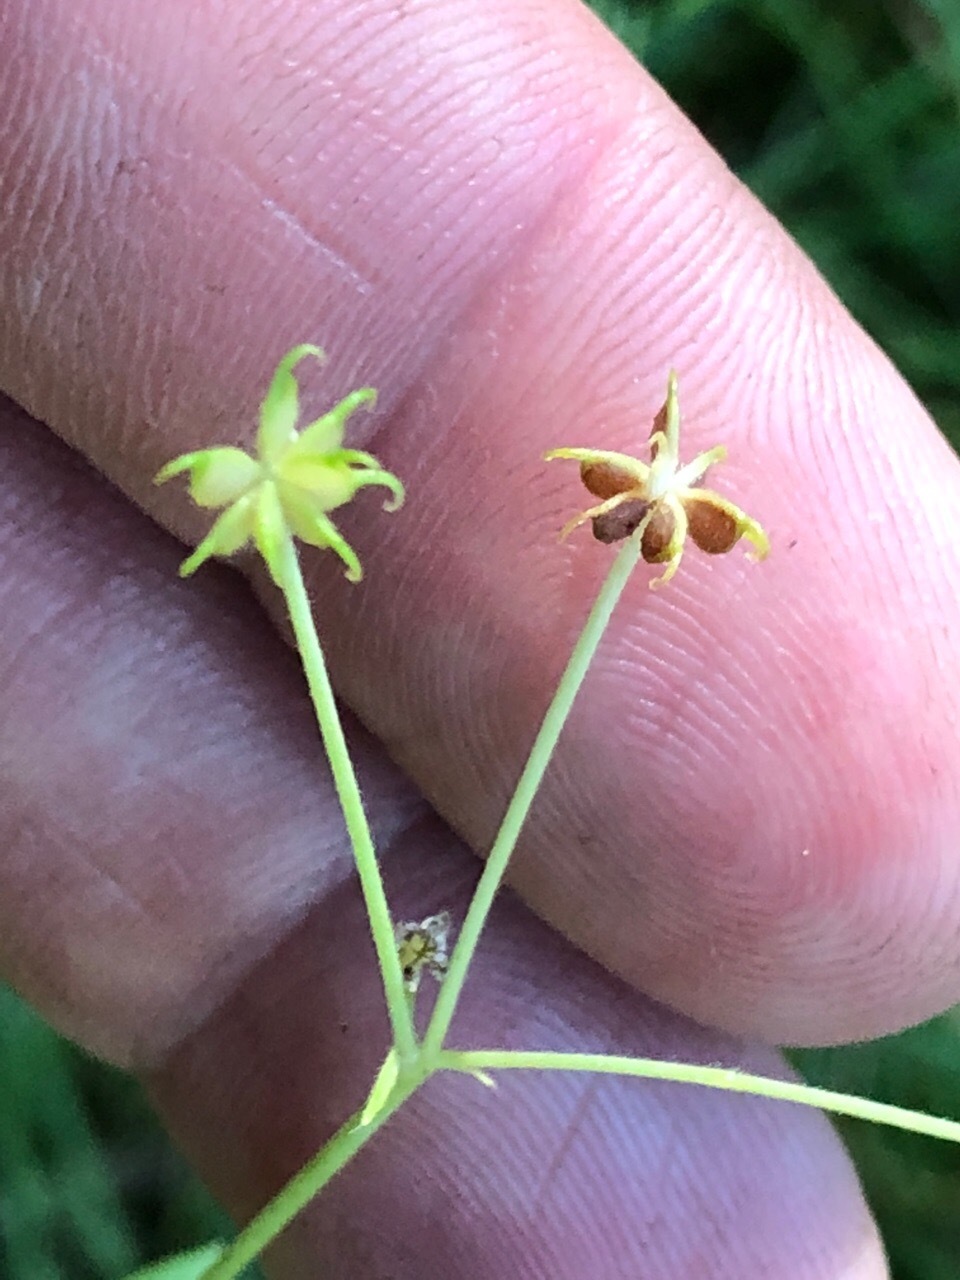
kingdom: Plantae
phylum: Tracheophyta
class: Magnoliopsida
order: Ranunculales
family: Ranunculaceae
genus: Ranunculus
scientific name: Ranunculus uncinatus
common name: Little buttercup
